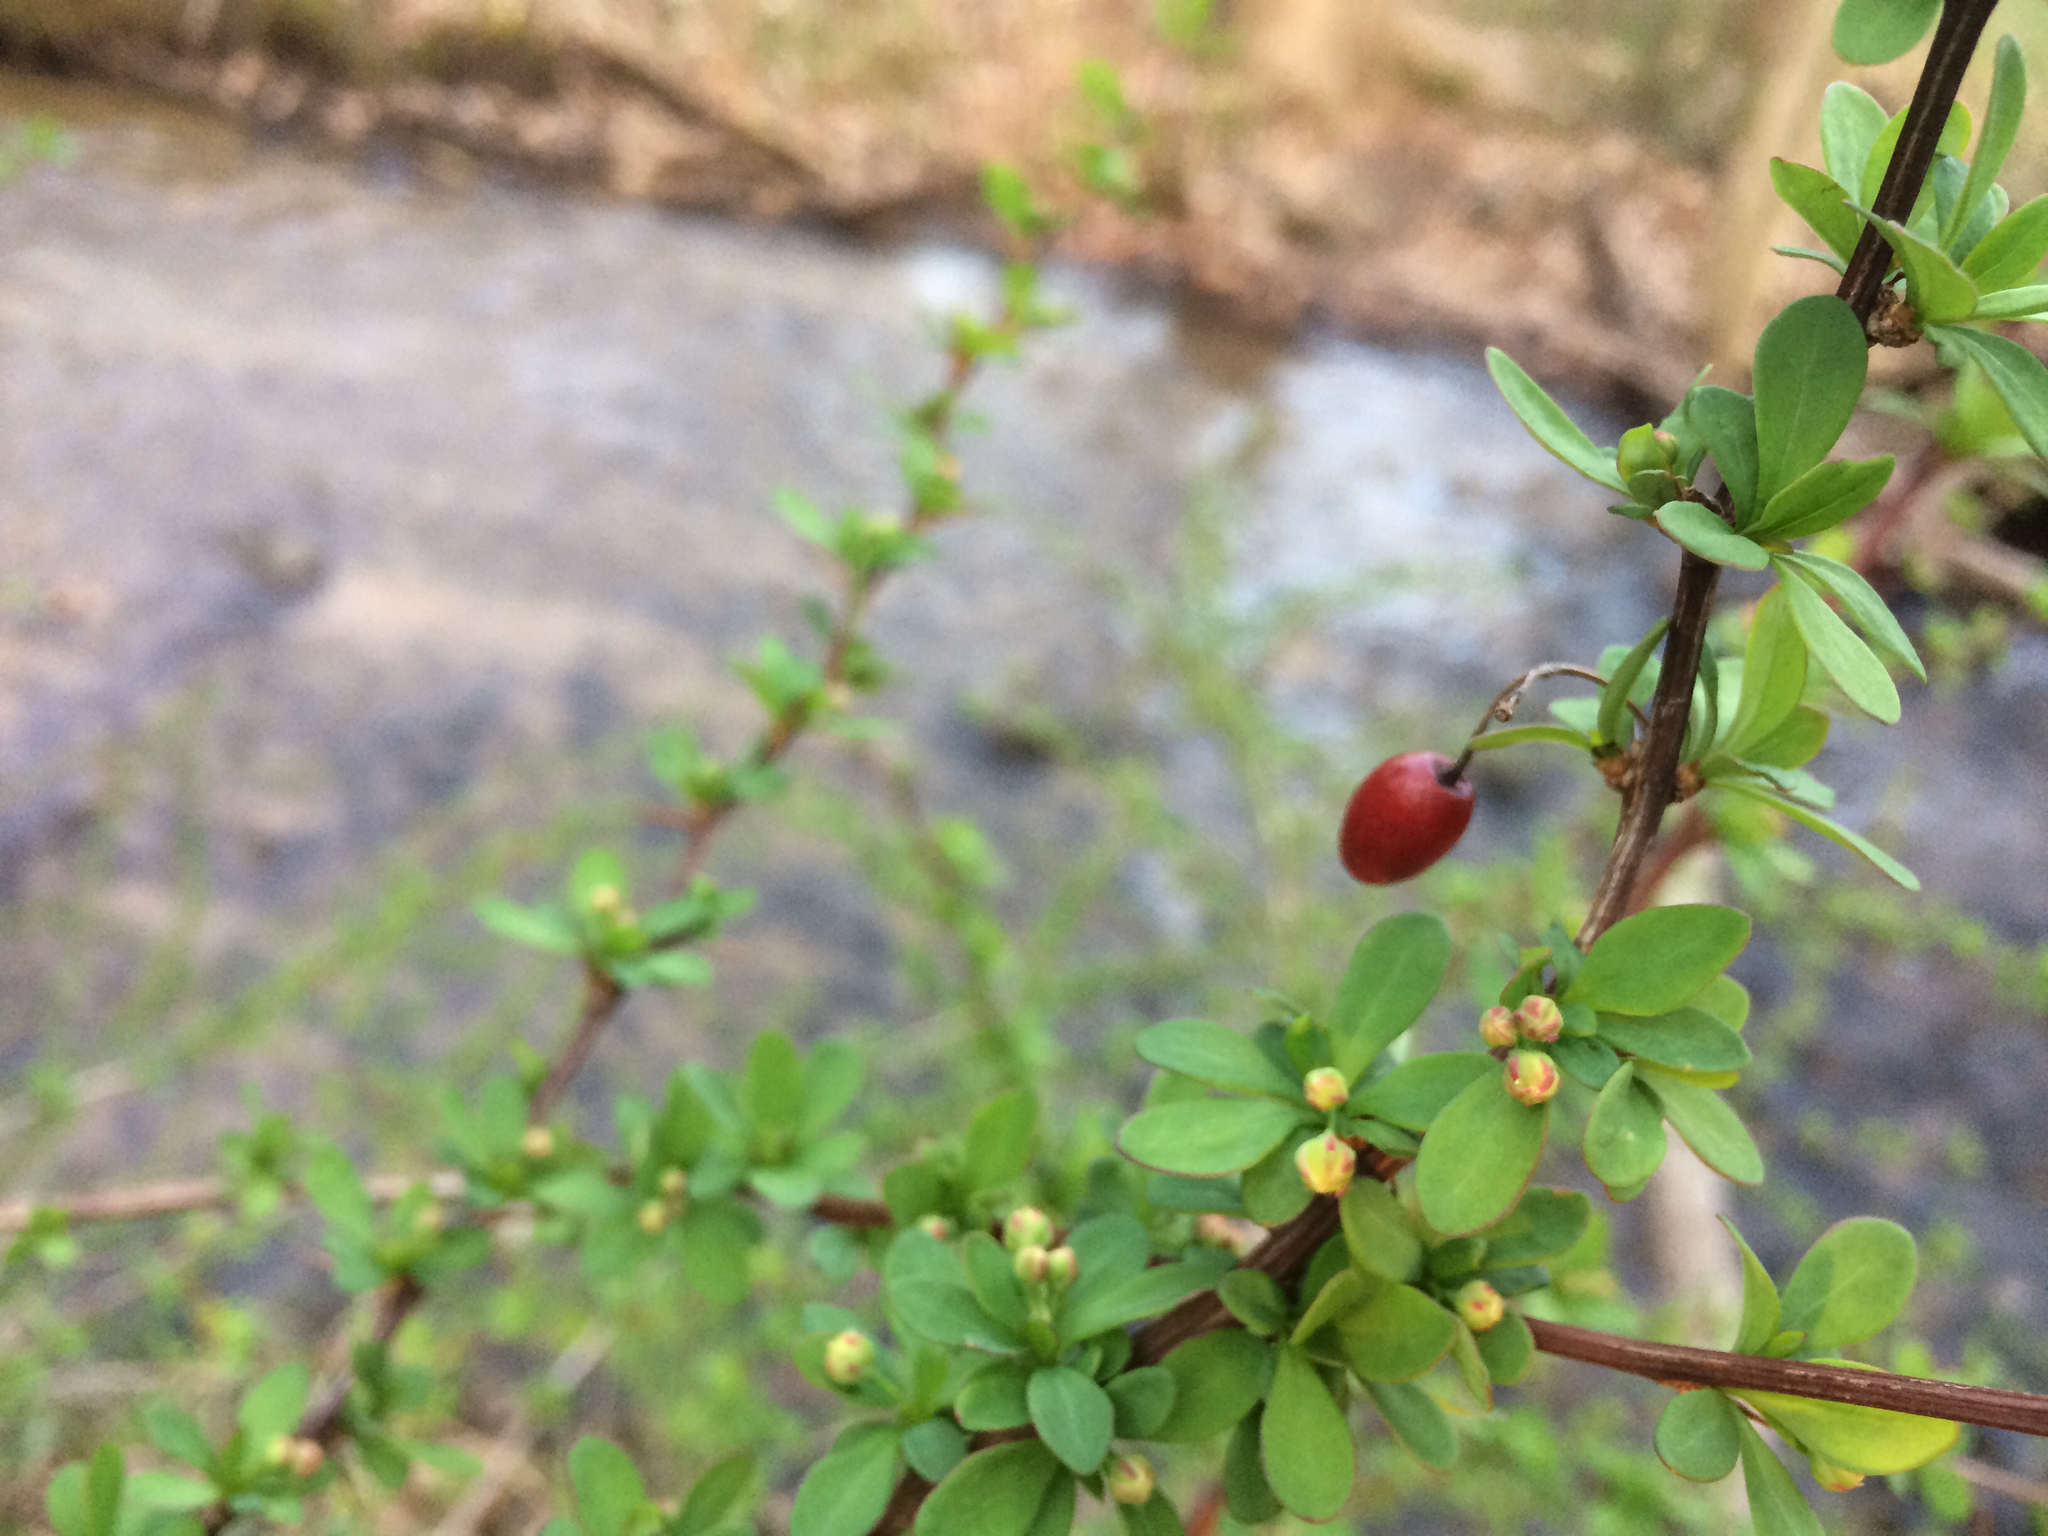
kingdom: Plantae
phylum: Tracheophyta
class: Magnoliopsida
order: Ranunculales
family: Berberidaceae
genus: Berberis
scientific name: Berberis thunbergii
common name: Japanese barberry
